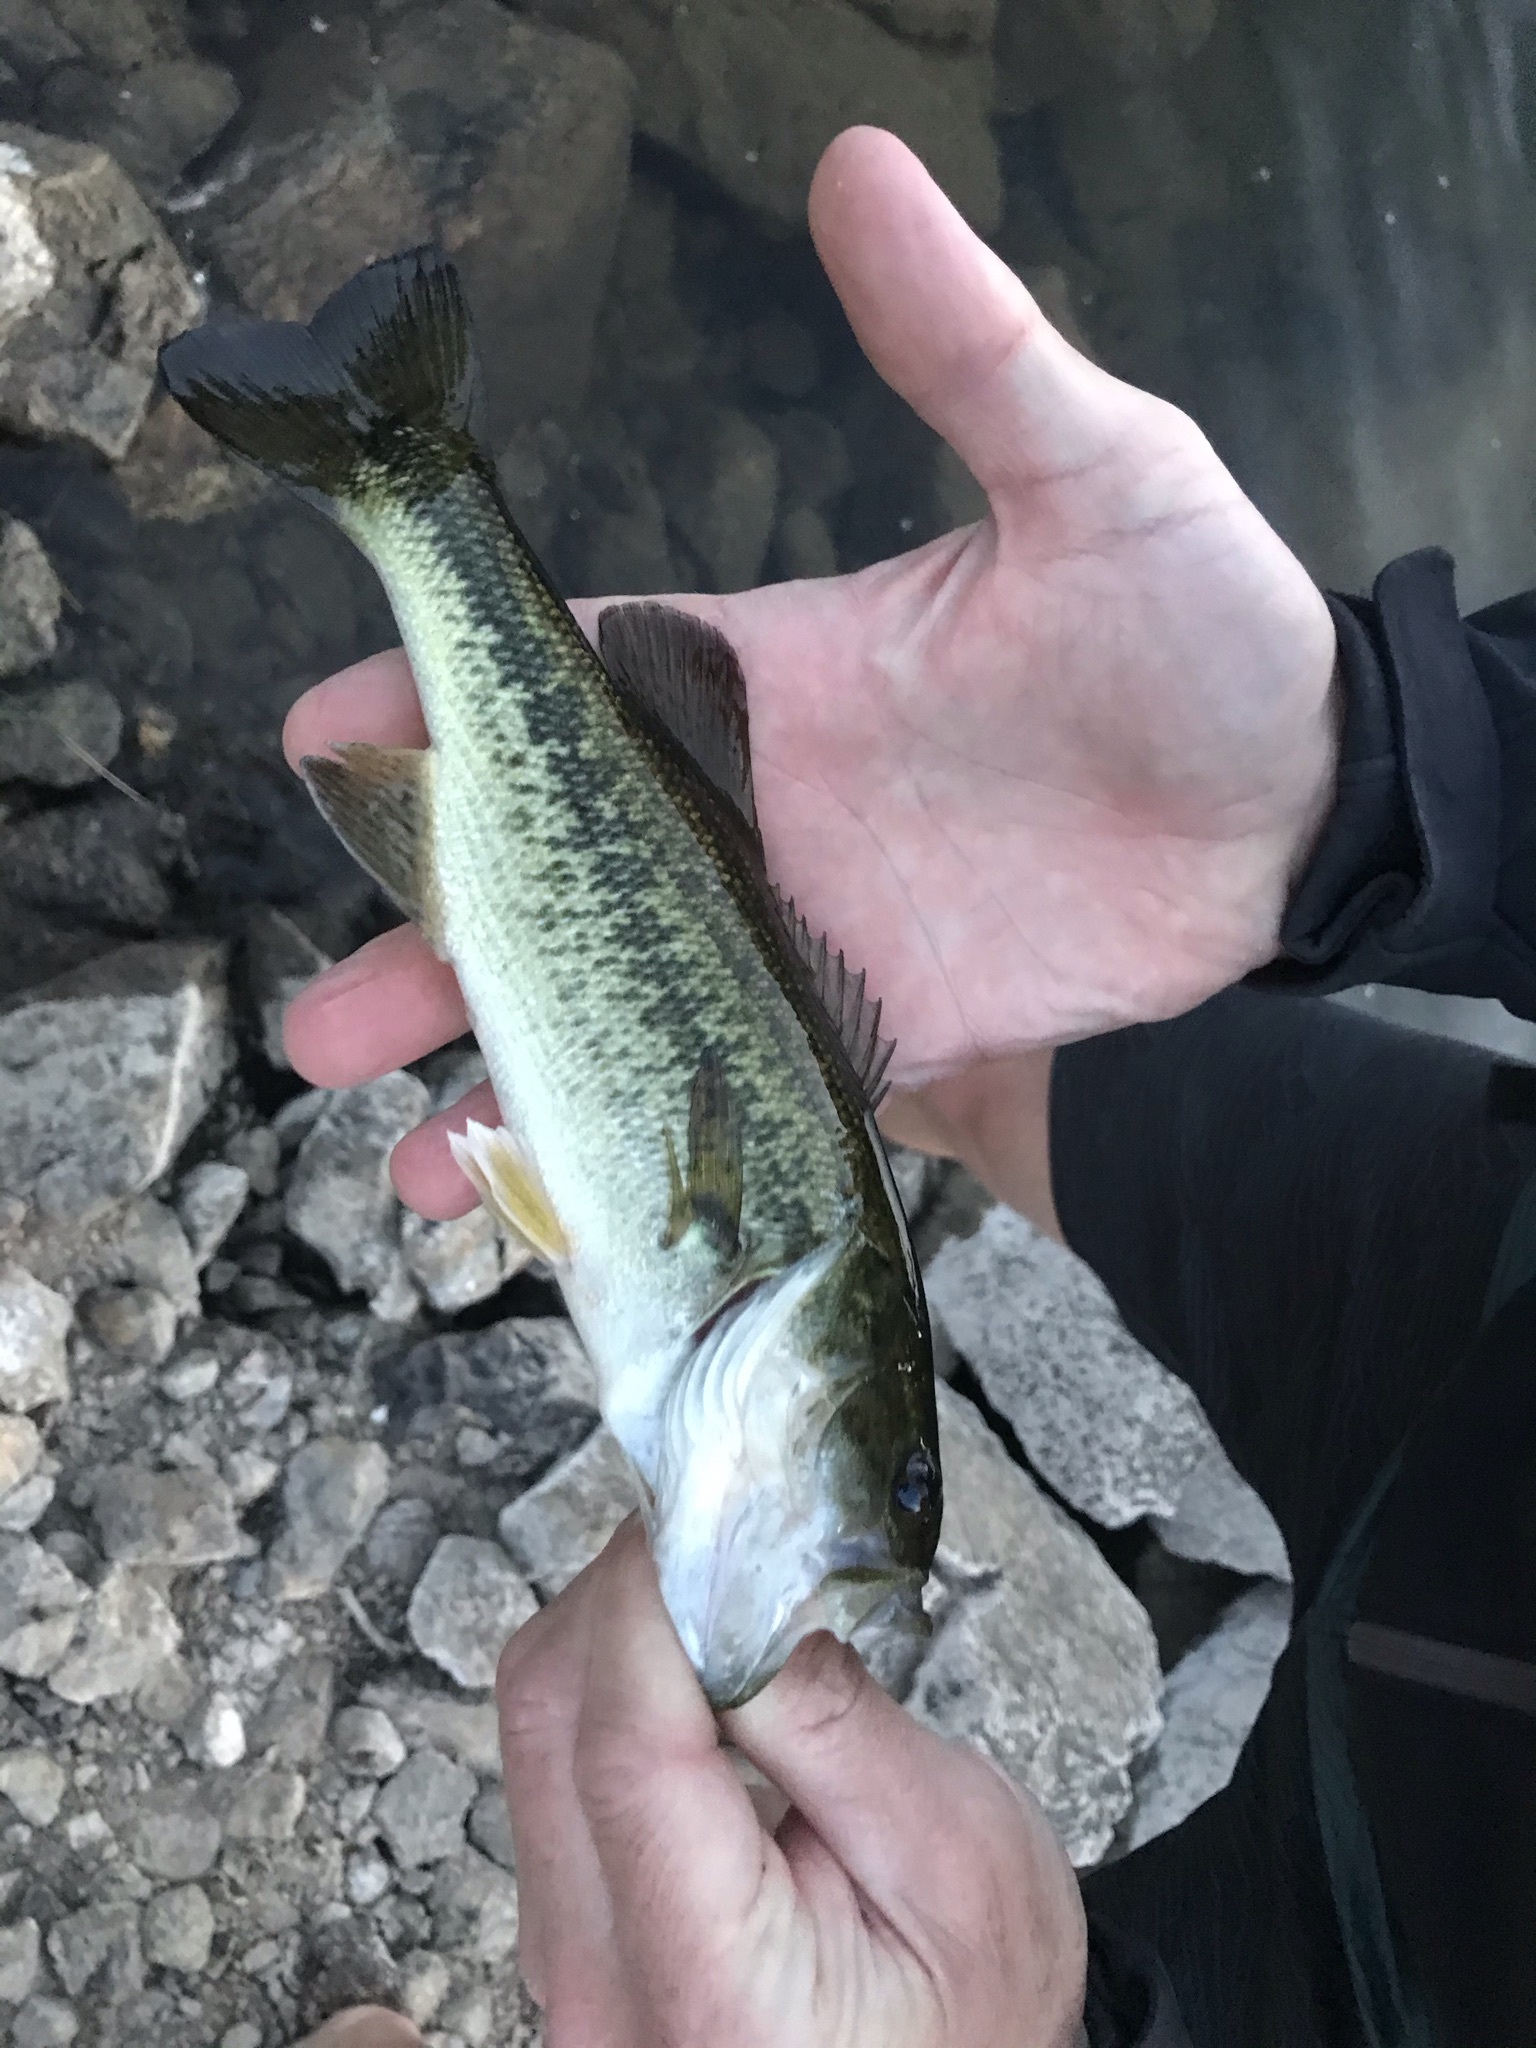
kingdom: Animalia
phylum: Chordata
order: Perciformes
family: Centrarchidae
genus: Micropterus
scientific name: Micropterus
